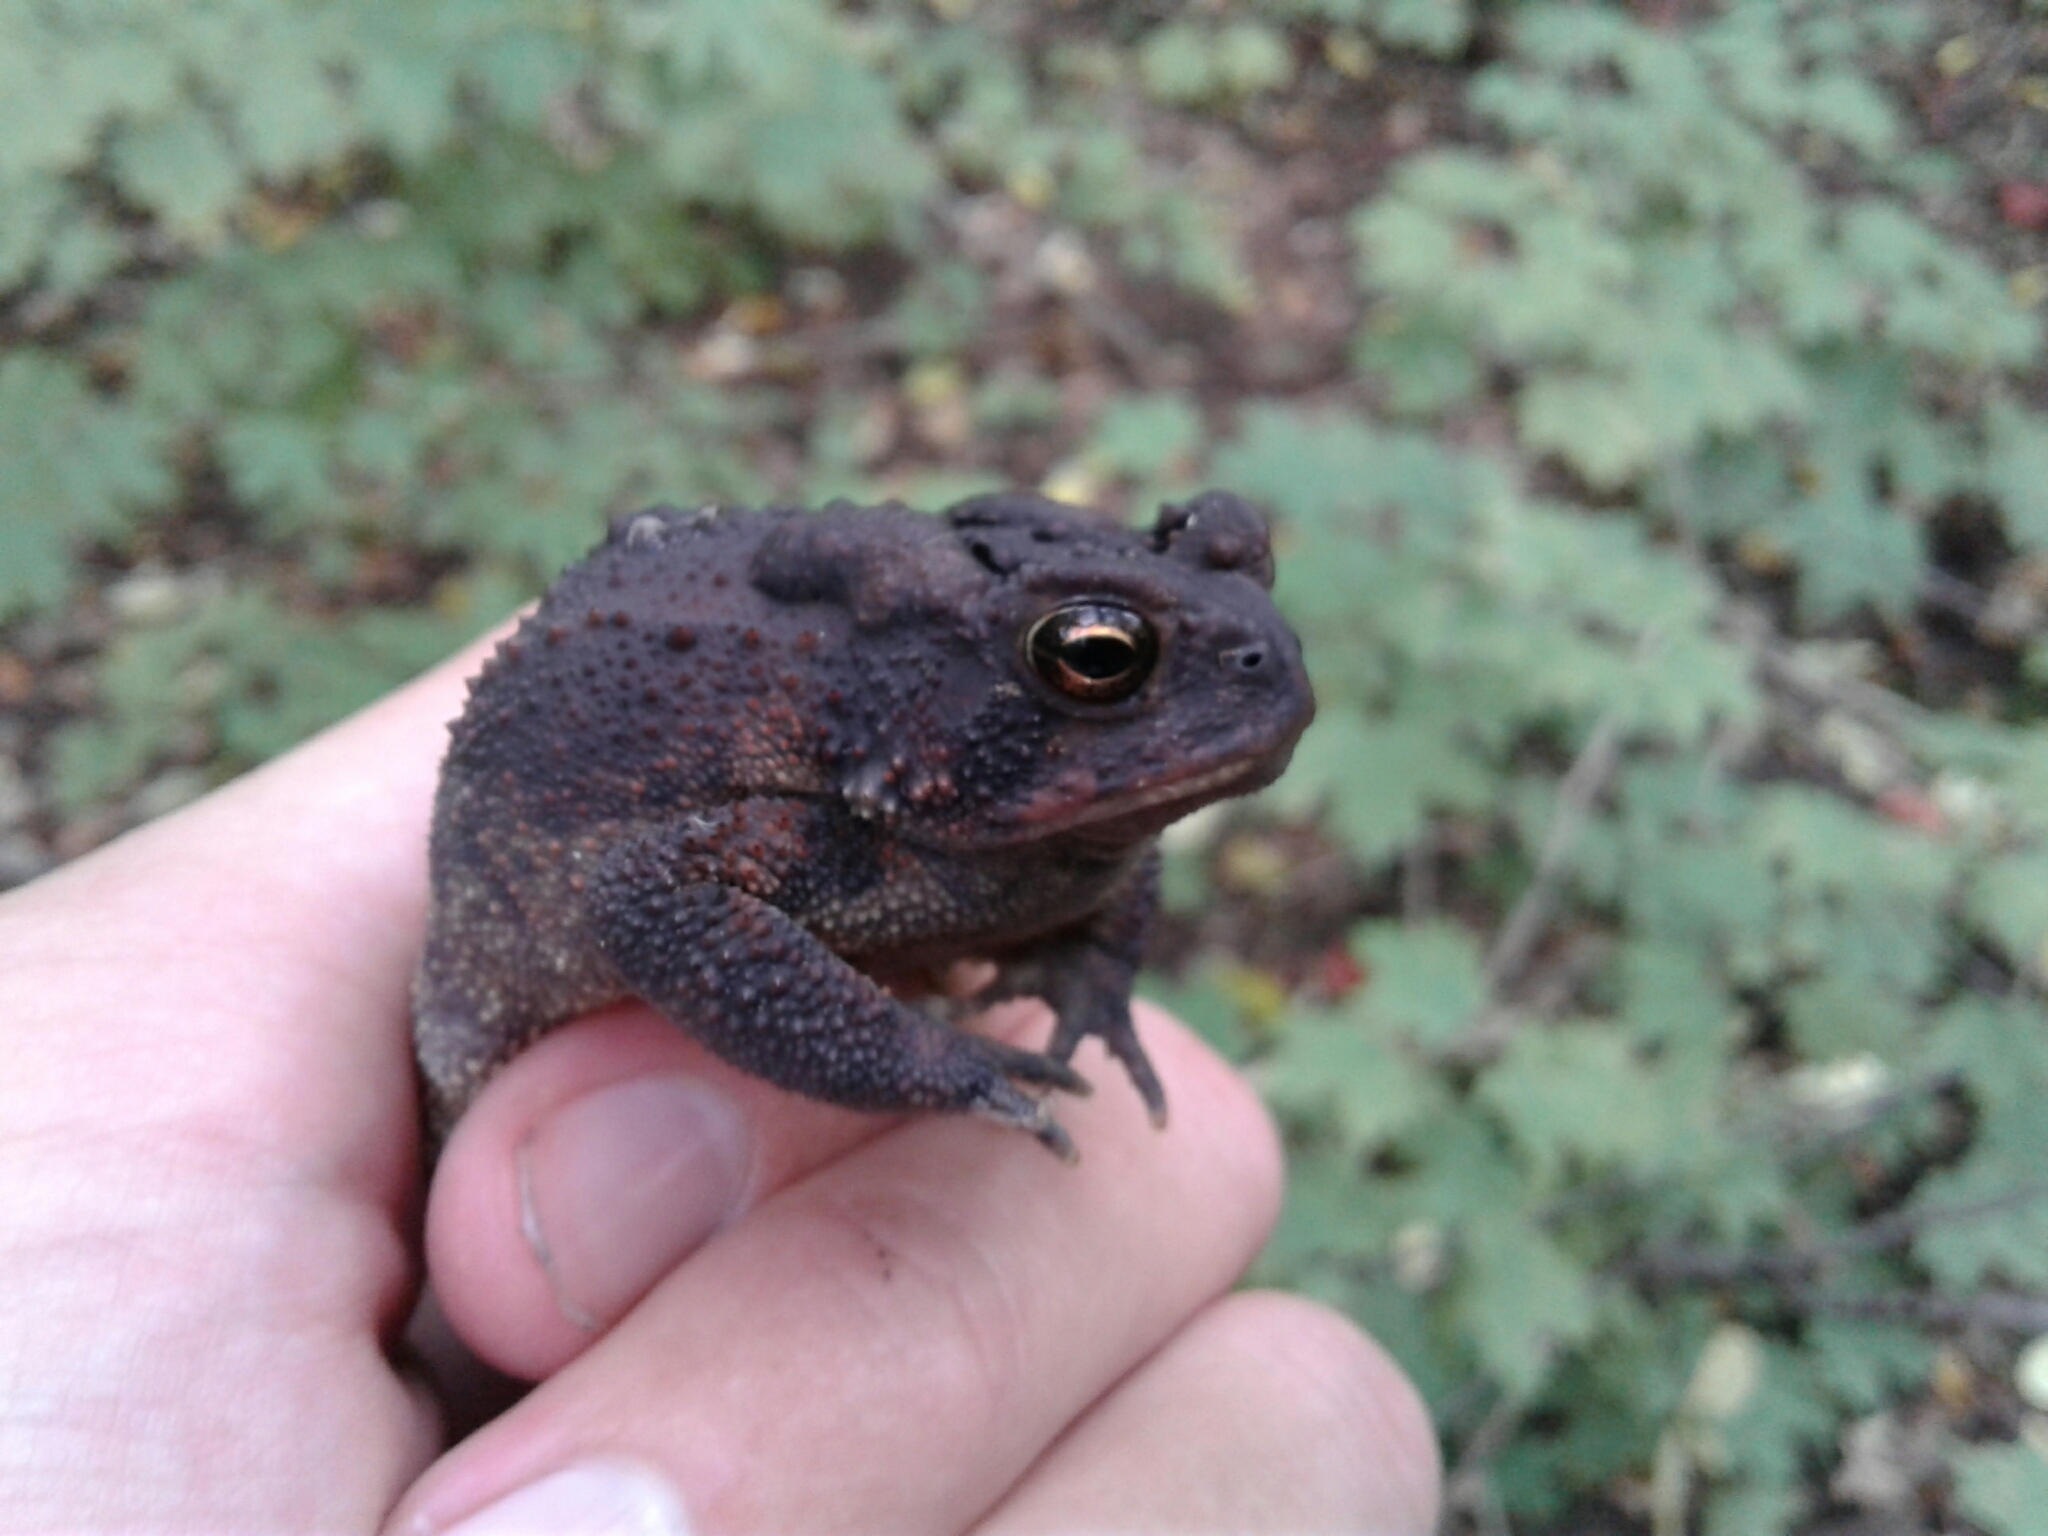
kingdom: Animalia
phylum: Chordata
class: Amphibia
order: Anura
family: Bufonidae
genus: Anaxyrus
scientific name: Anaxyrus americanus
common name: American toad
